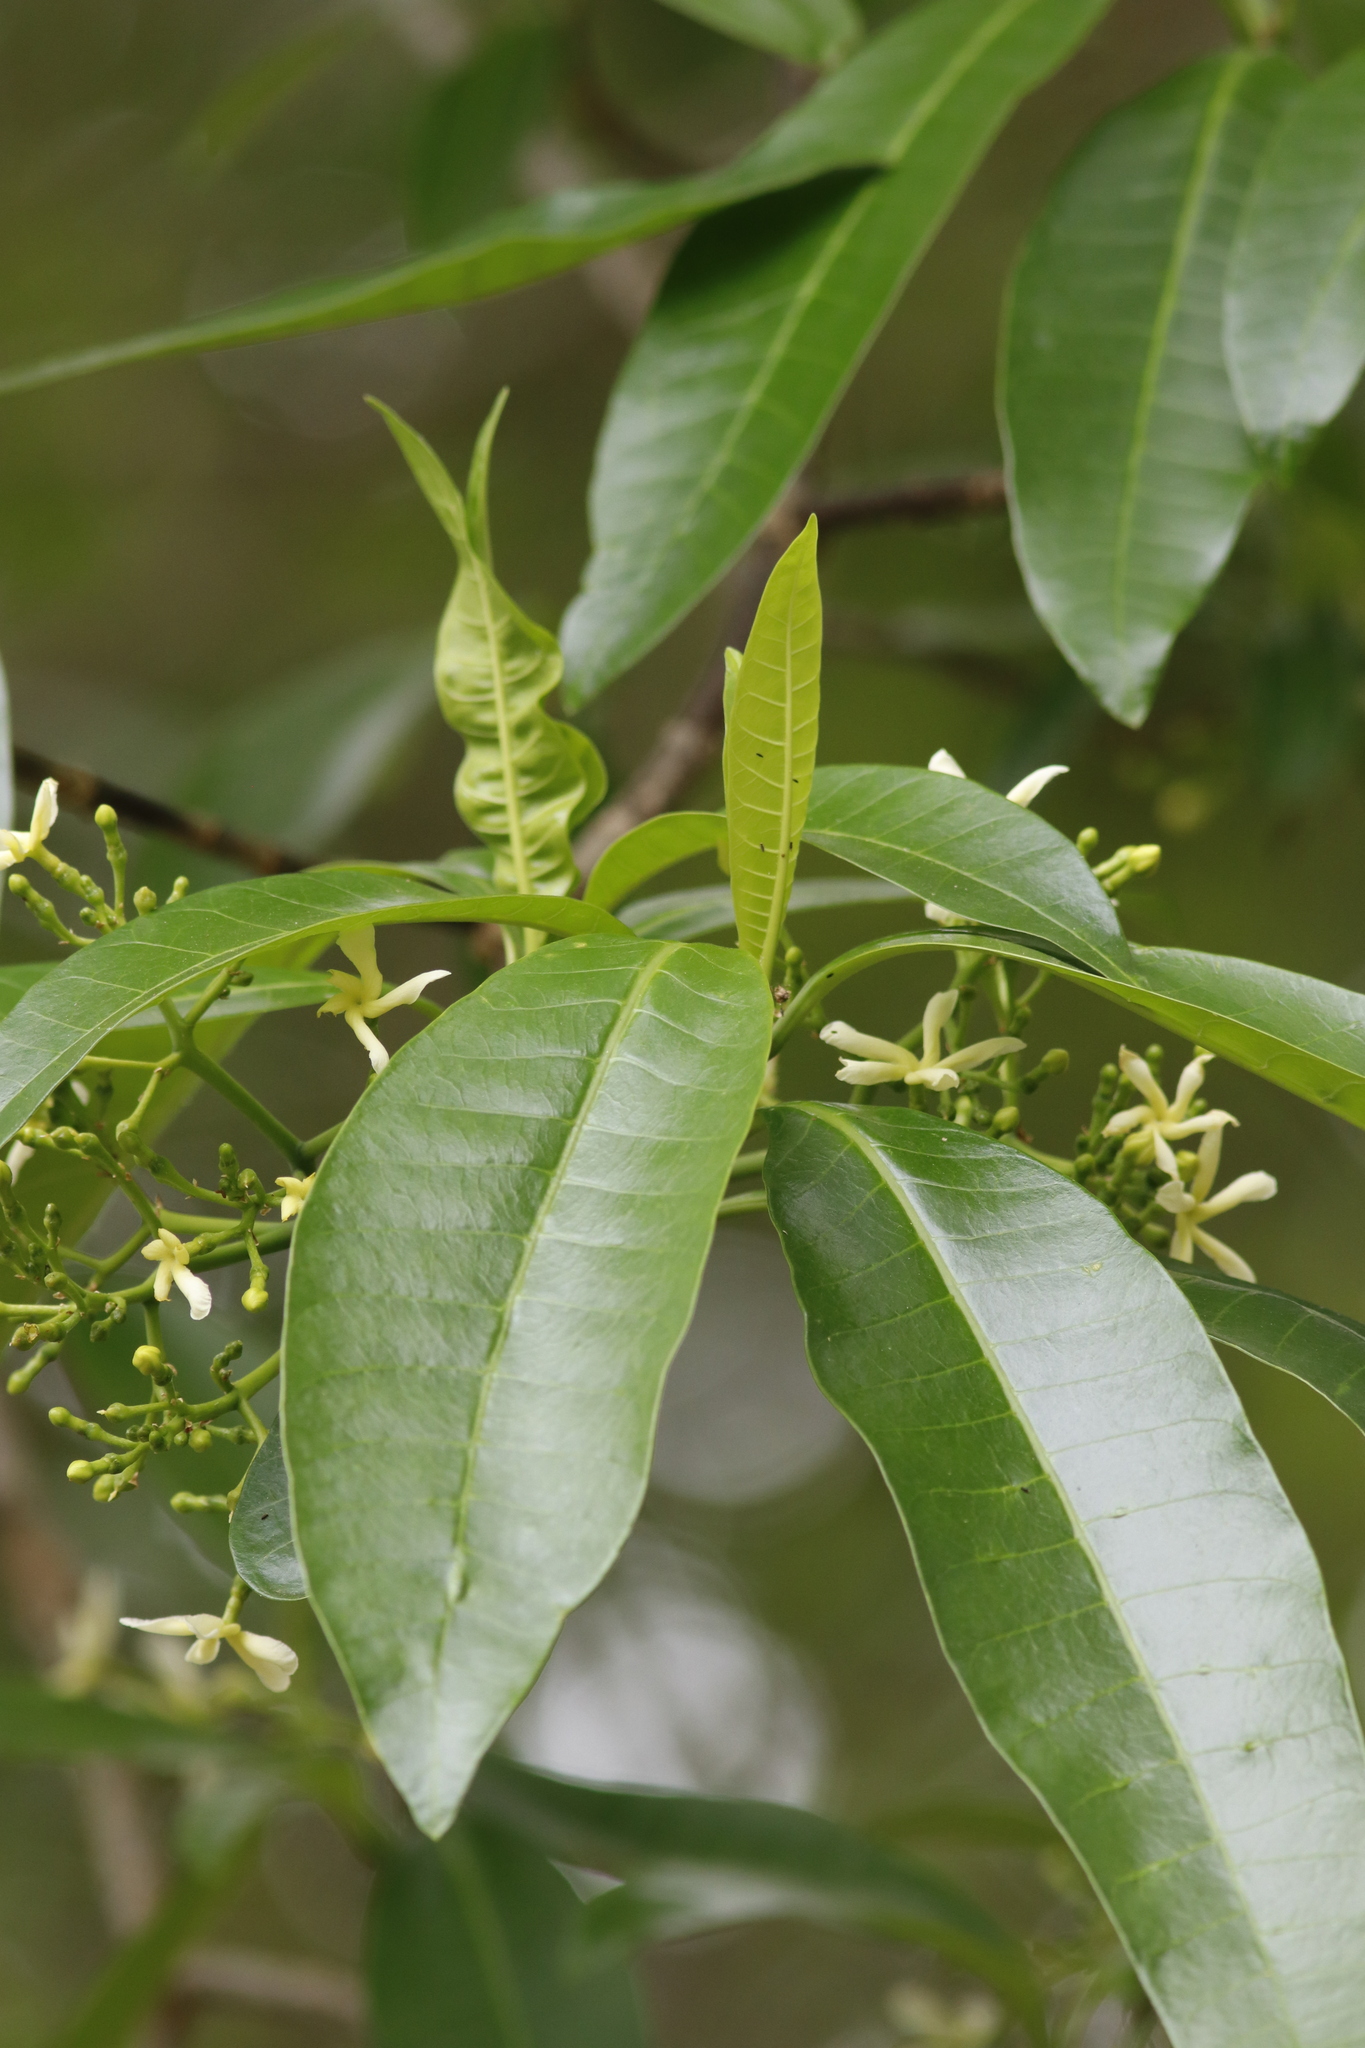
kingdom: Plantae
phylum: Tracheophyta
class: Magnoliopsida
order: Gentianales
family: Apocynaceae
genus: Tabernaemontana
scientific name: Tabernaemontana elegans
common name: Toadtree
